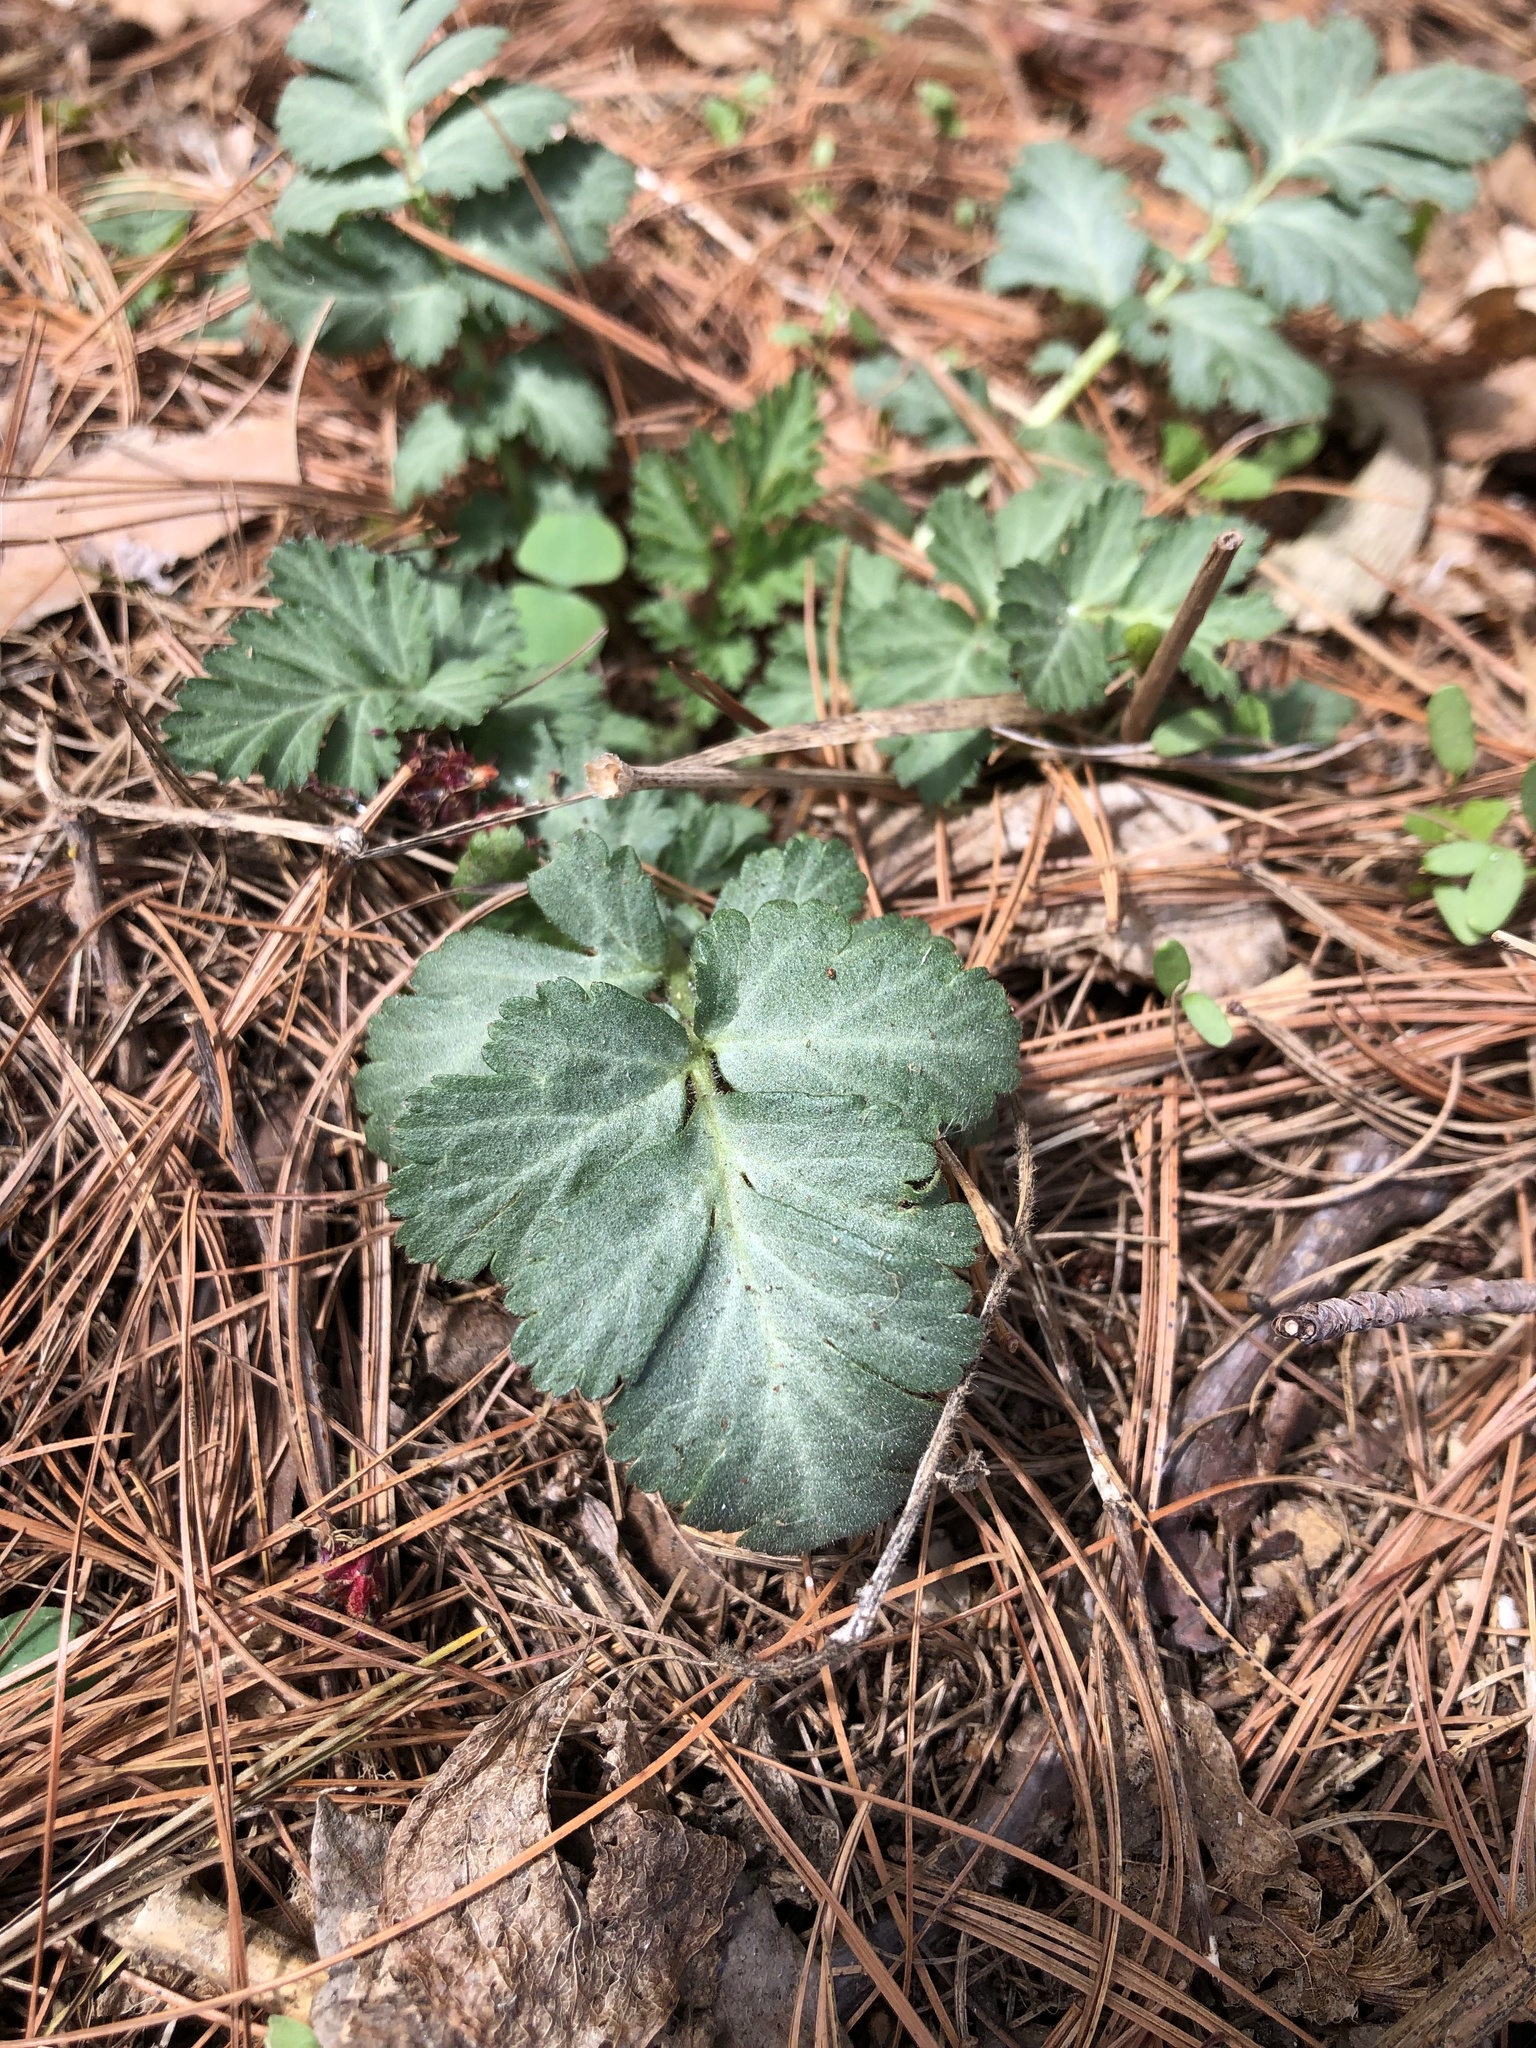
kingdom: Plantae
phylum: Tracheophyta
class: Magnoliopsida
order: Rosales
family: Rosaceae
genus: Geum
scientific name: Geum canadense
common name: White avens
